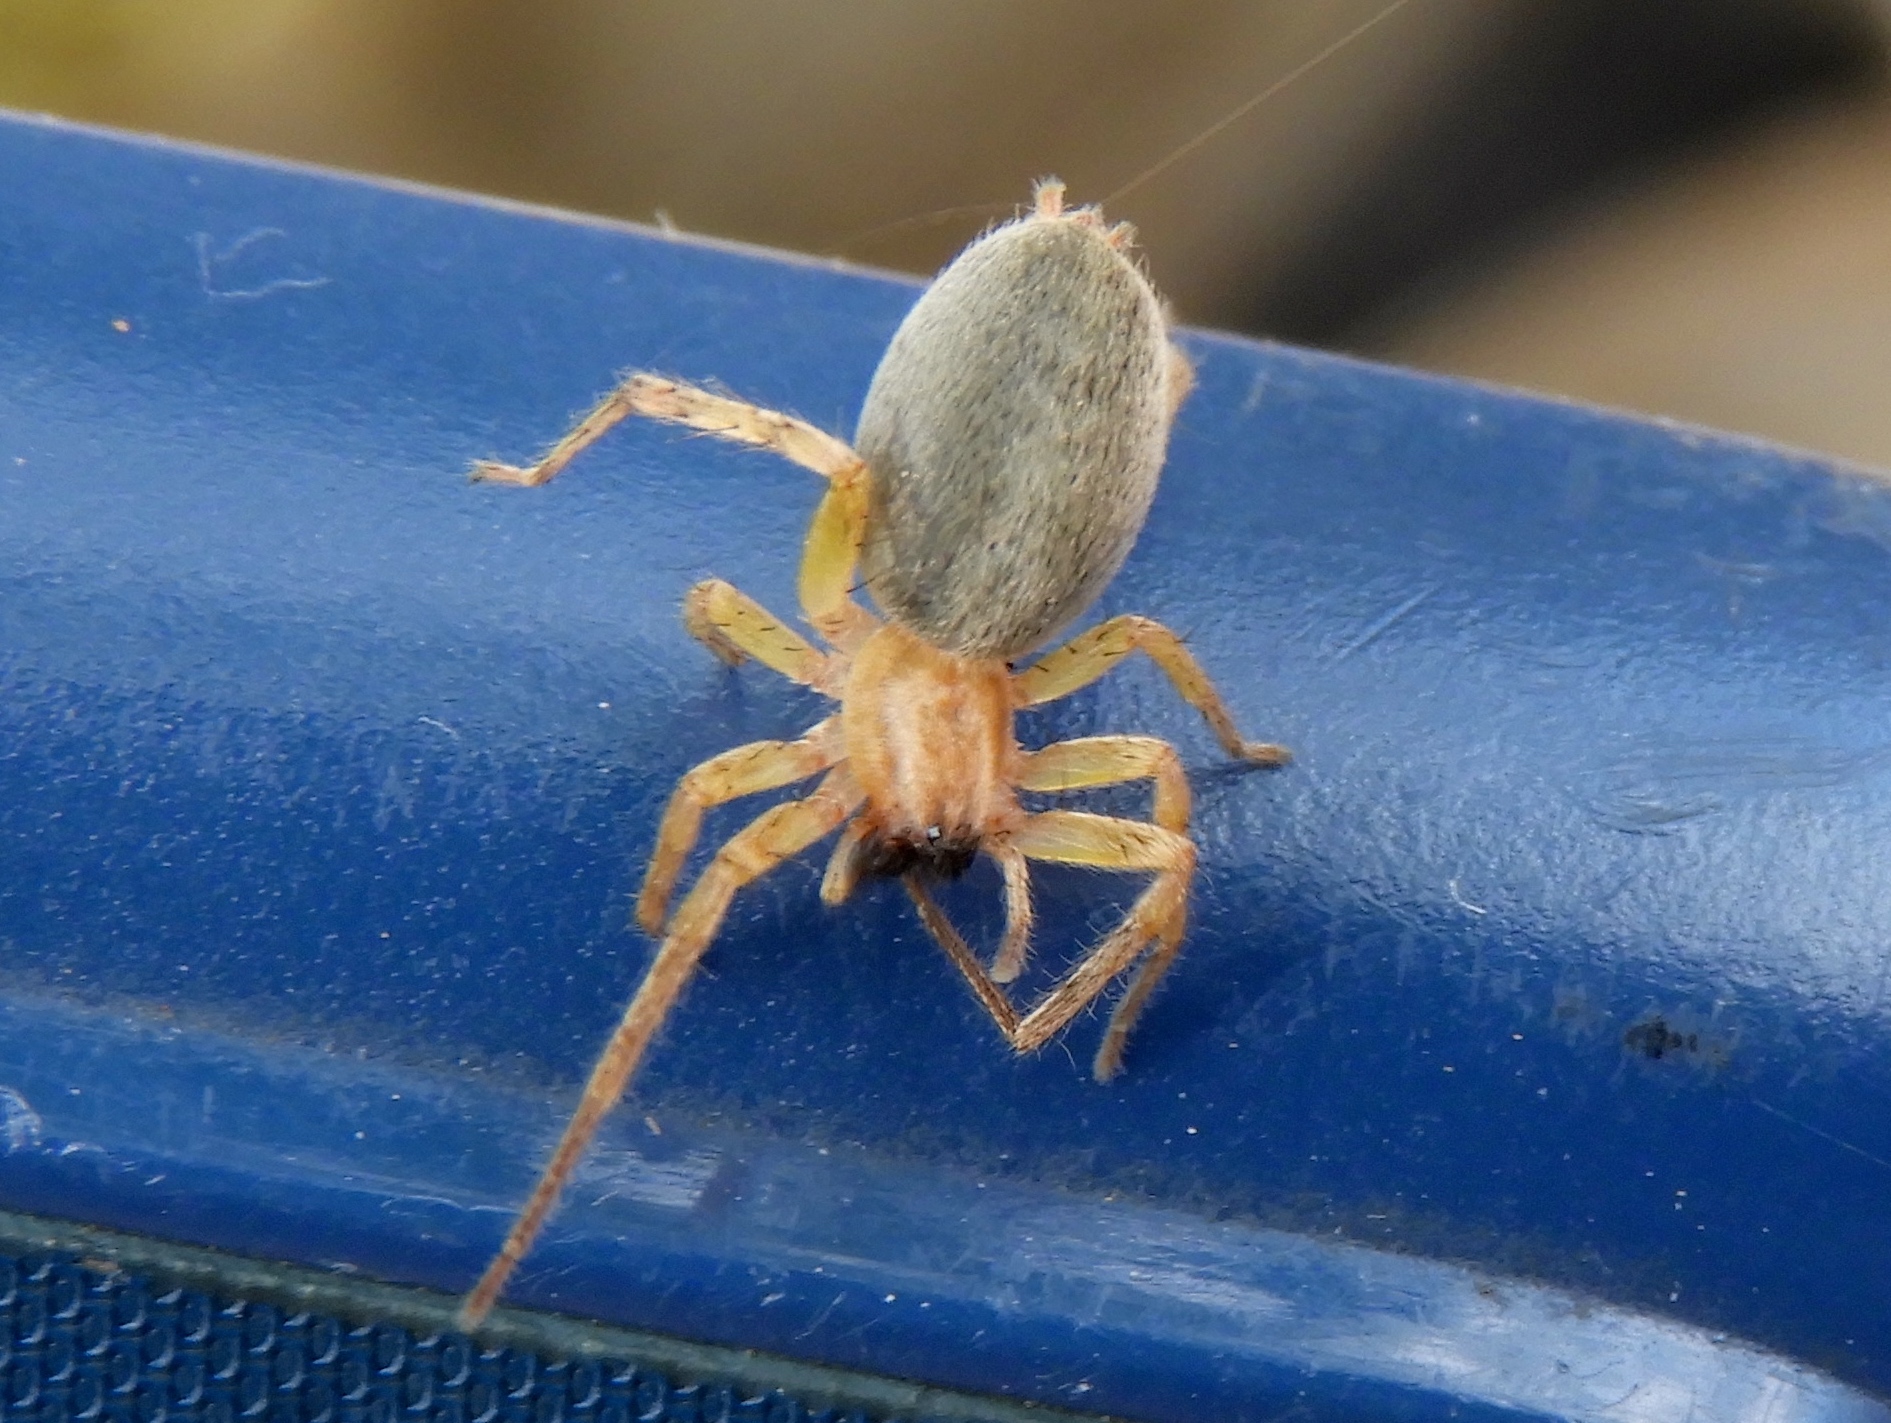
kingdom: Animalia
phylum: Arthropoda
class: Arachnida
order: Araneae
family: Anyphaenidae
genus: Hibana
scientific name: Hibana
